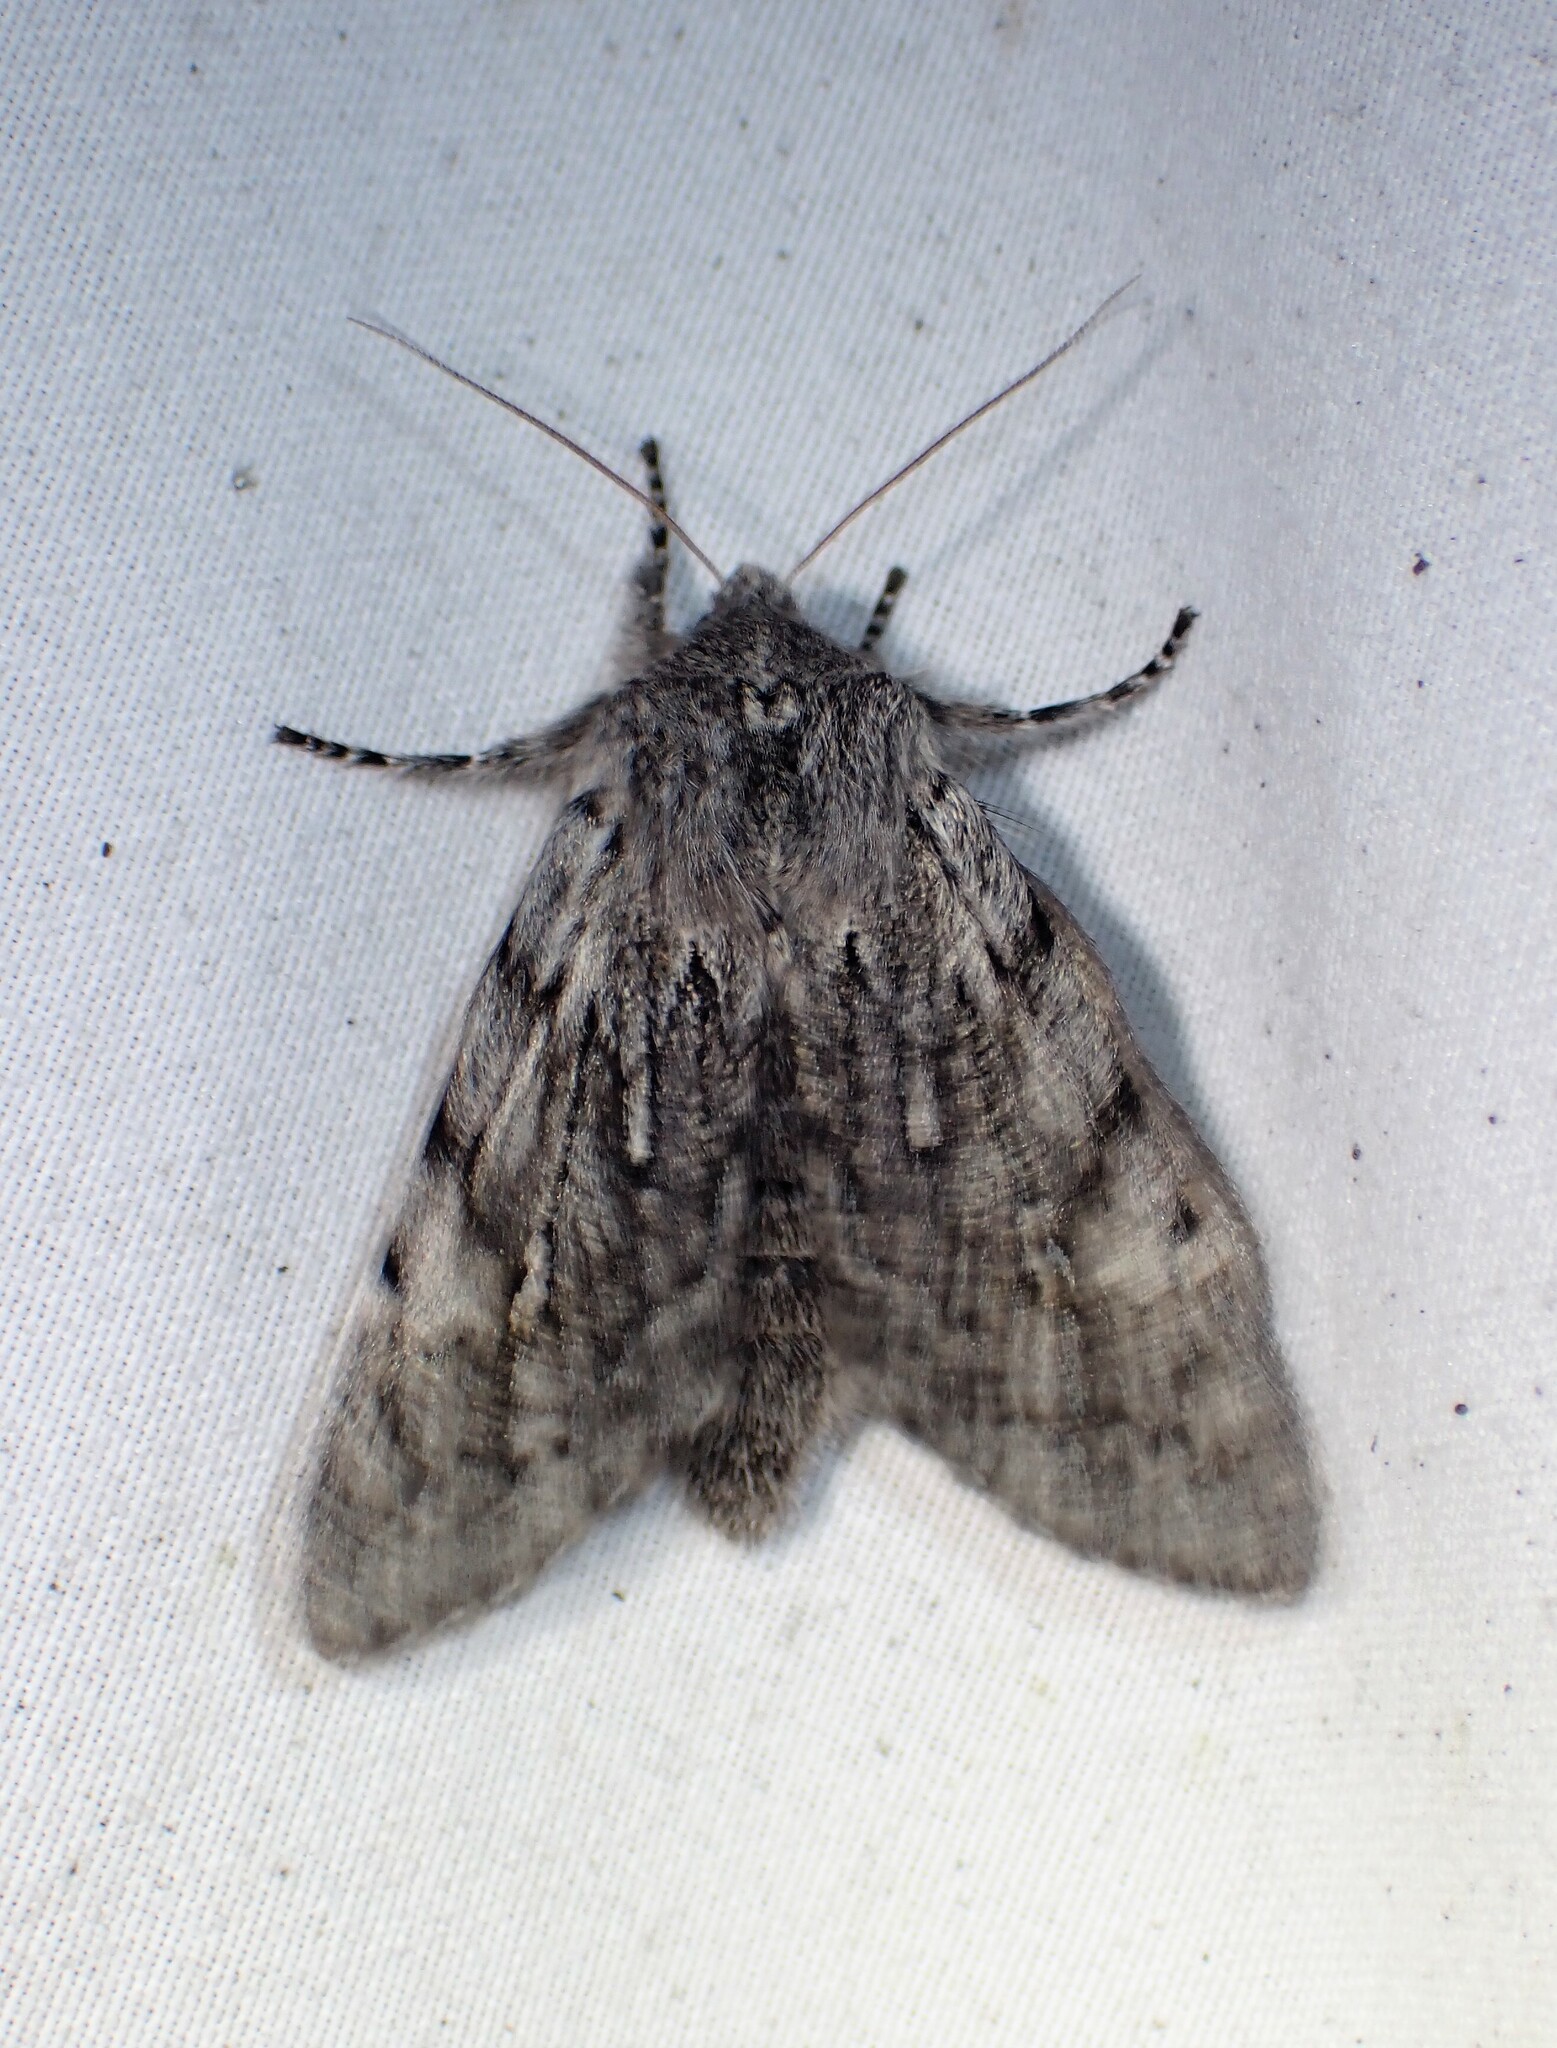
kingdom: Animalia
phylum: Arthropoda
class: Insecta
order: Lepidoptera
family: Noctuidae
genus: Brachionycha
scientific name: Brachionycha borealis
